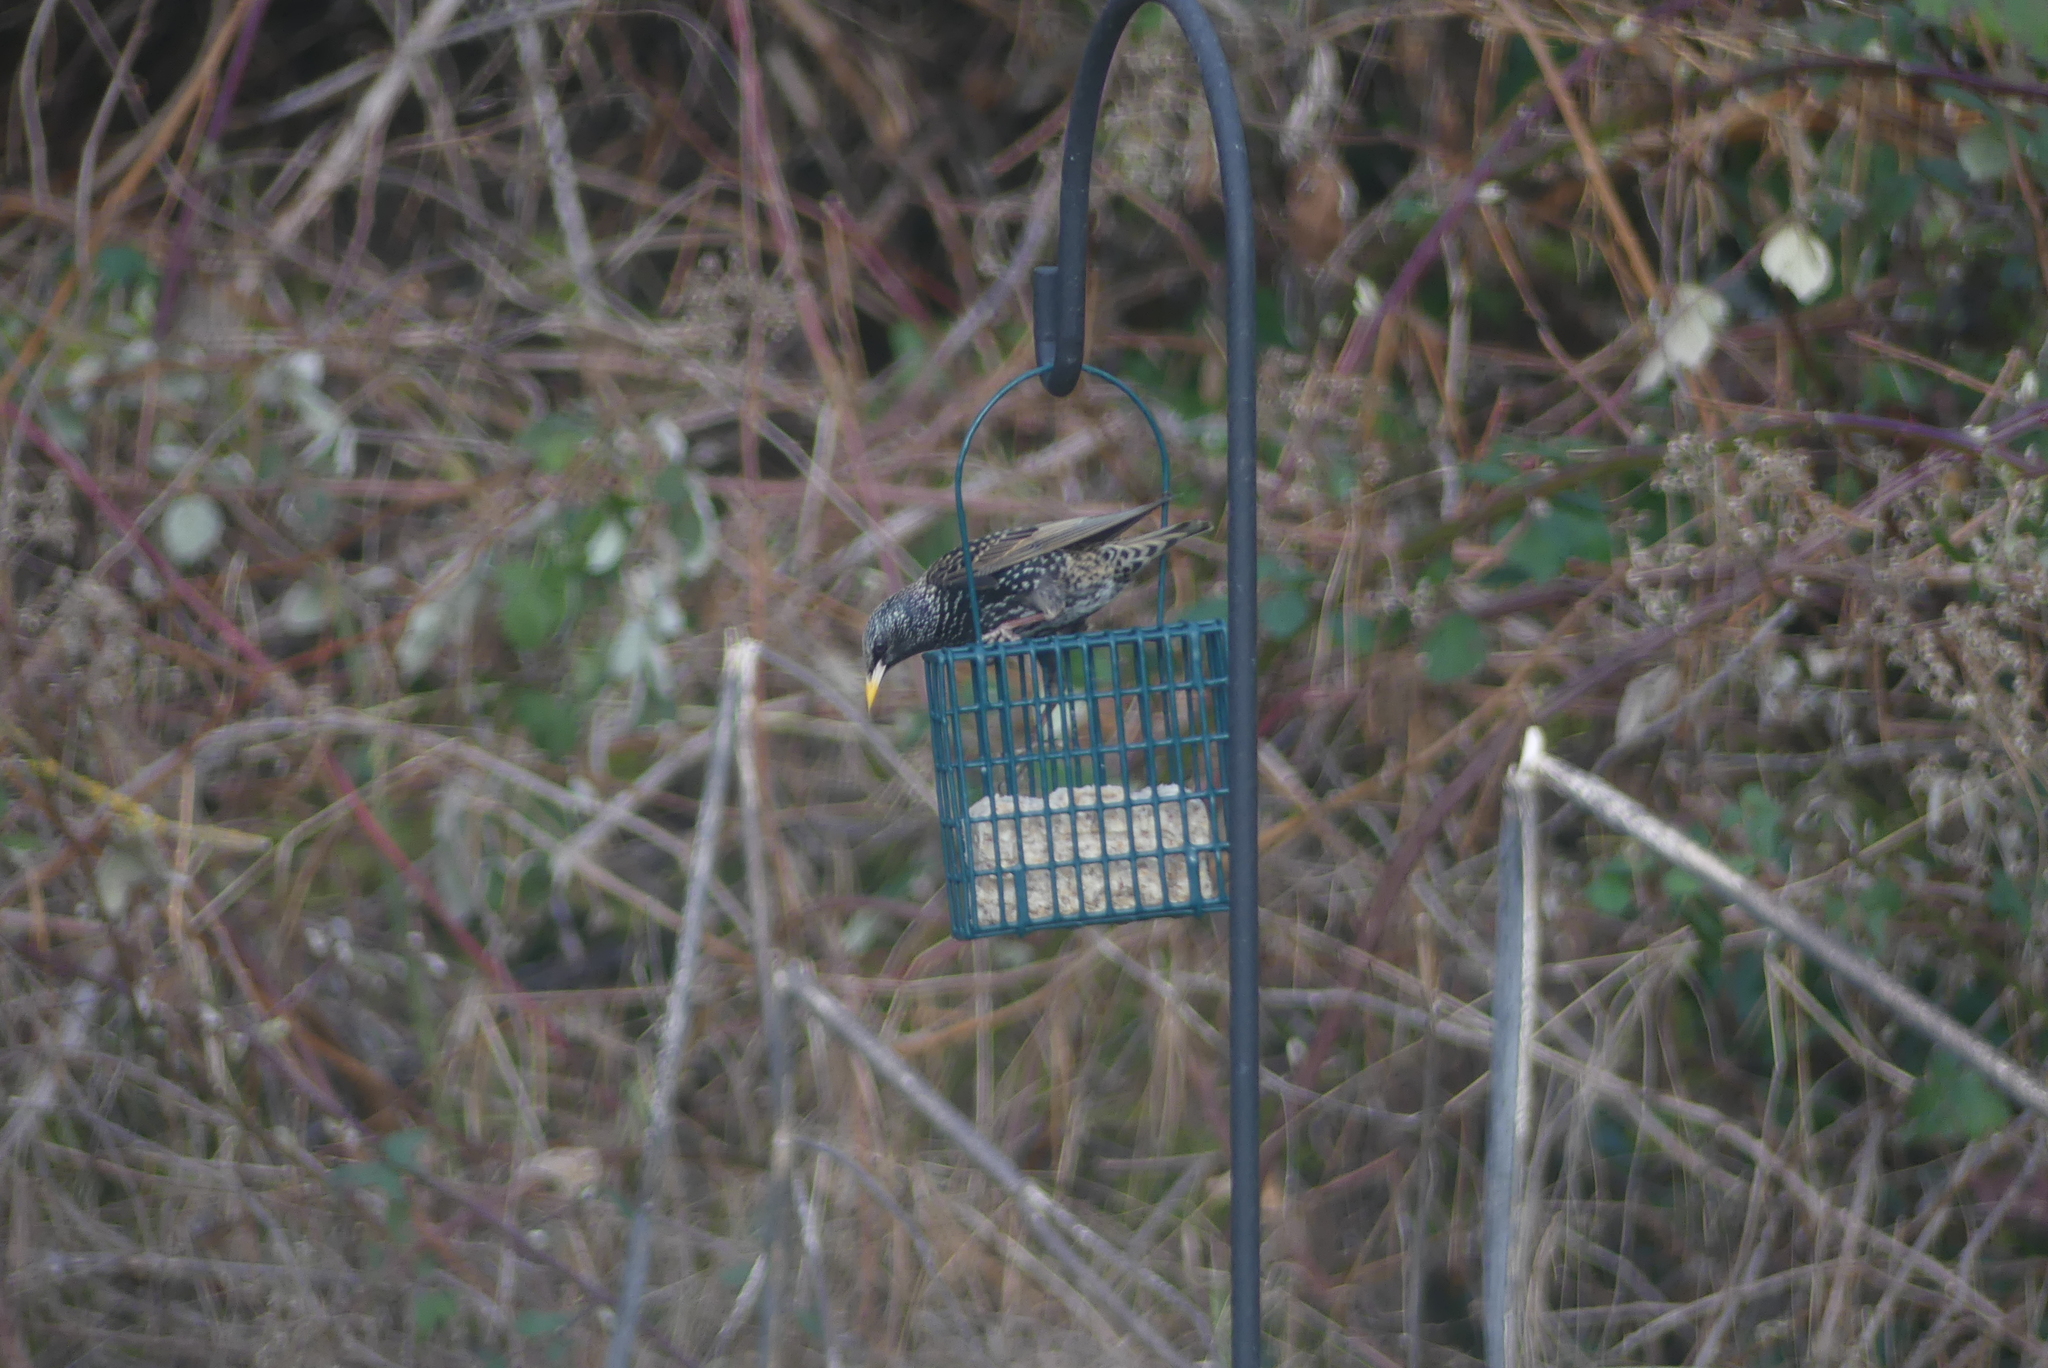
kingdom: Animalia
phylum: Chordata
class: Aves
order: Passeriformes
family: Sturnidae
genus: Sturnus
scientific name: Sturnus vulgaris
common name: Common starling
